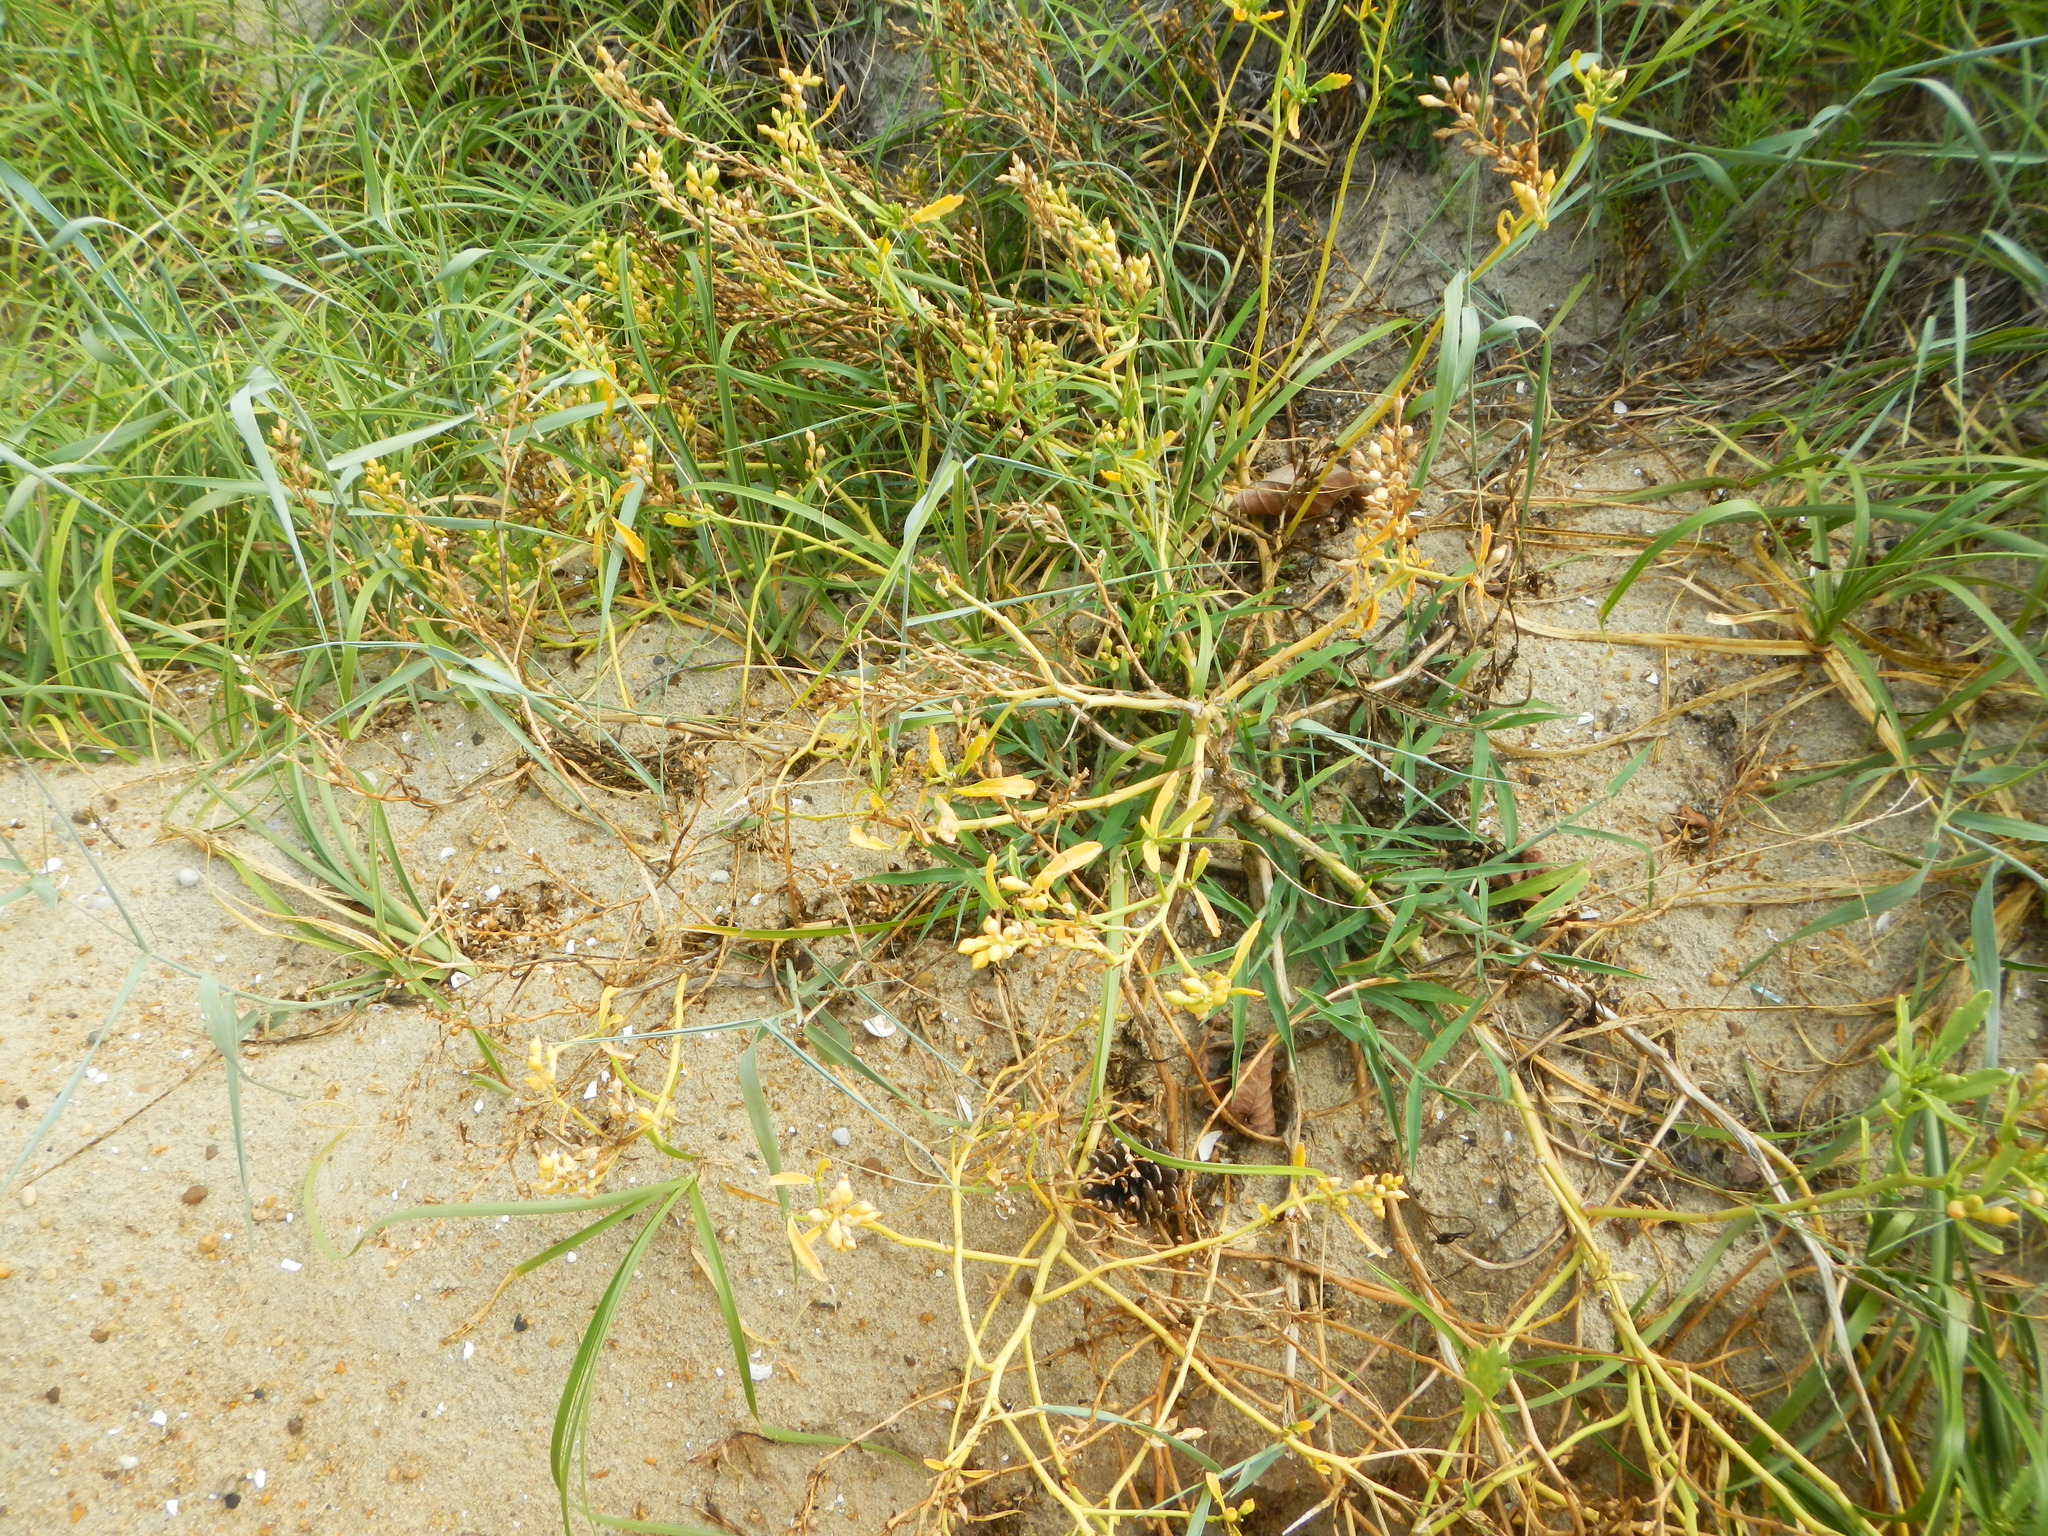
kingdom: Plantae
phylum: Tracheophyta
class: Magnoliopsida
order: Brassicales
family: Brassicaceae
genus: Cakile
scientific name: Cakile edentula
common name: American sea rocket
